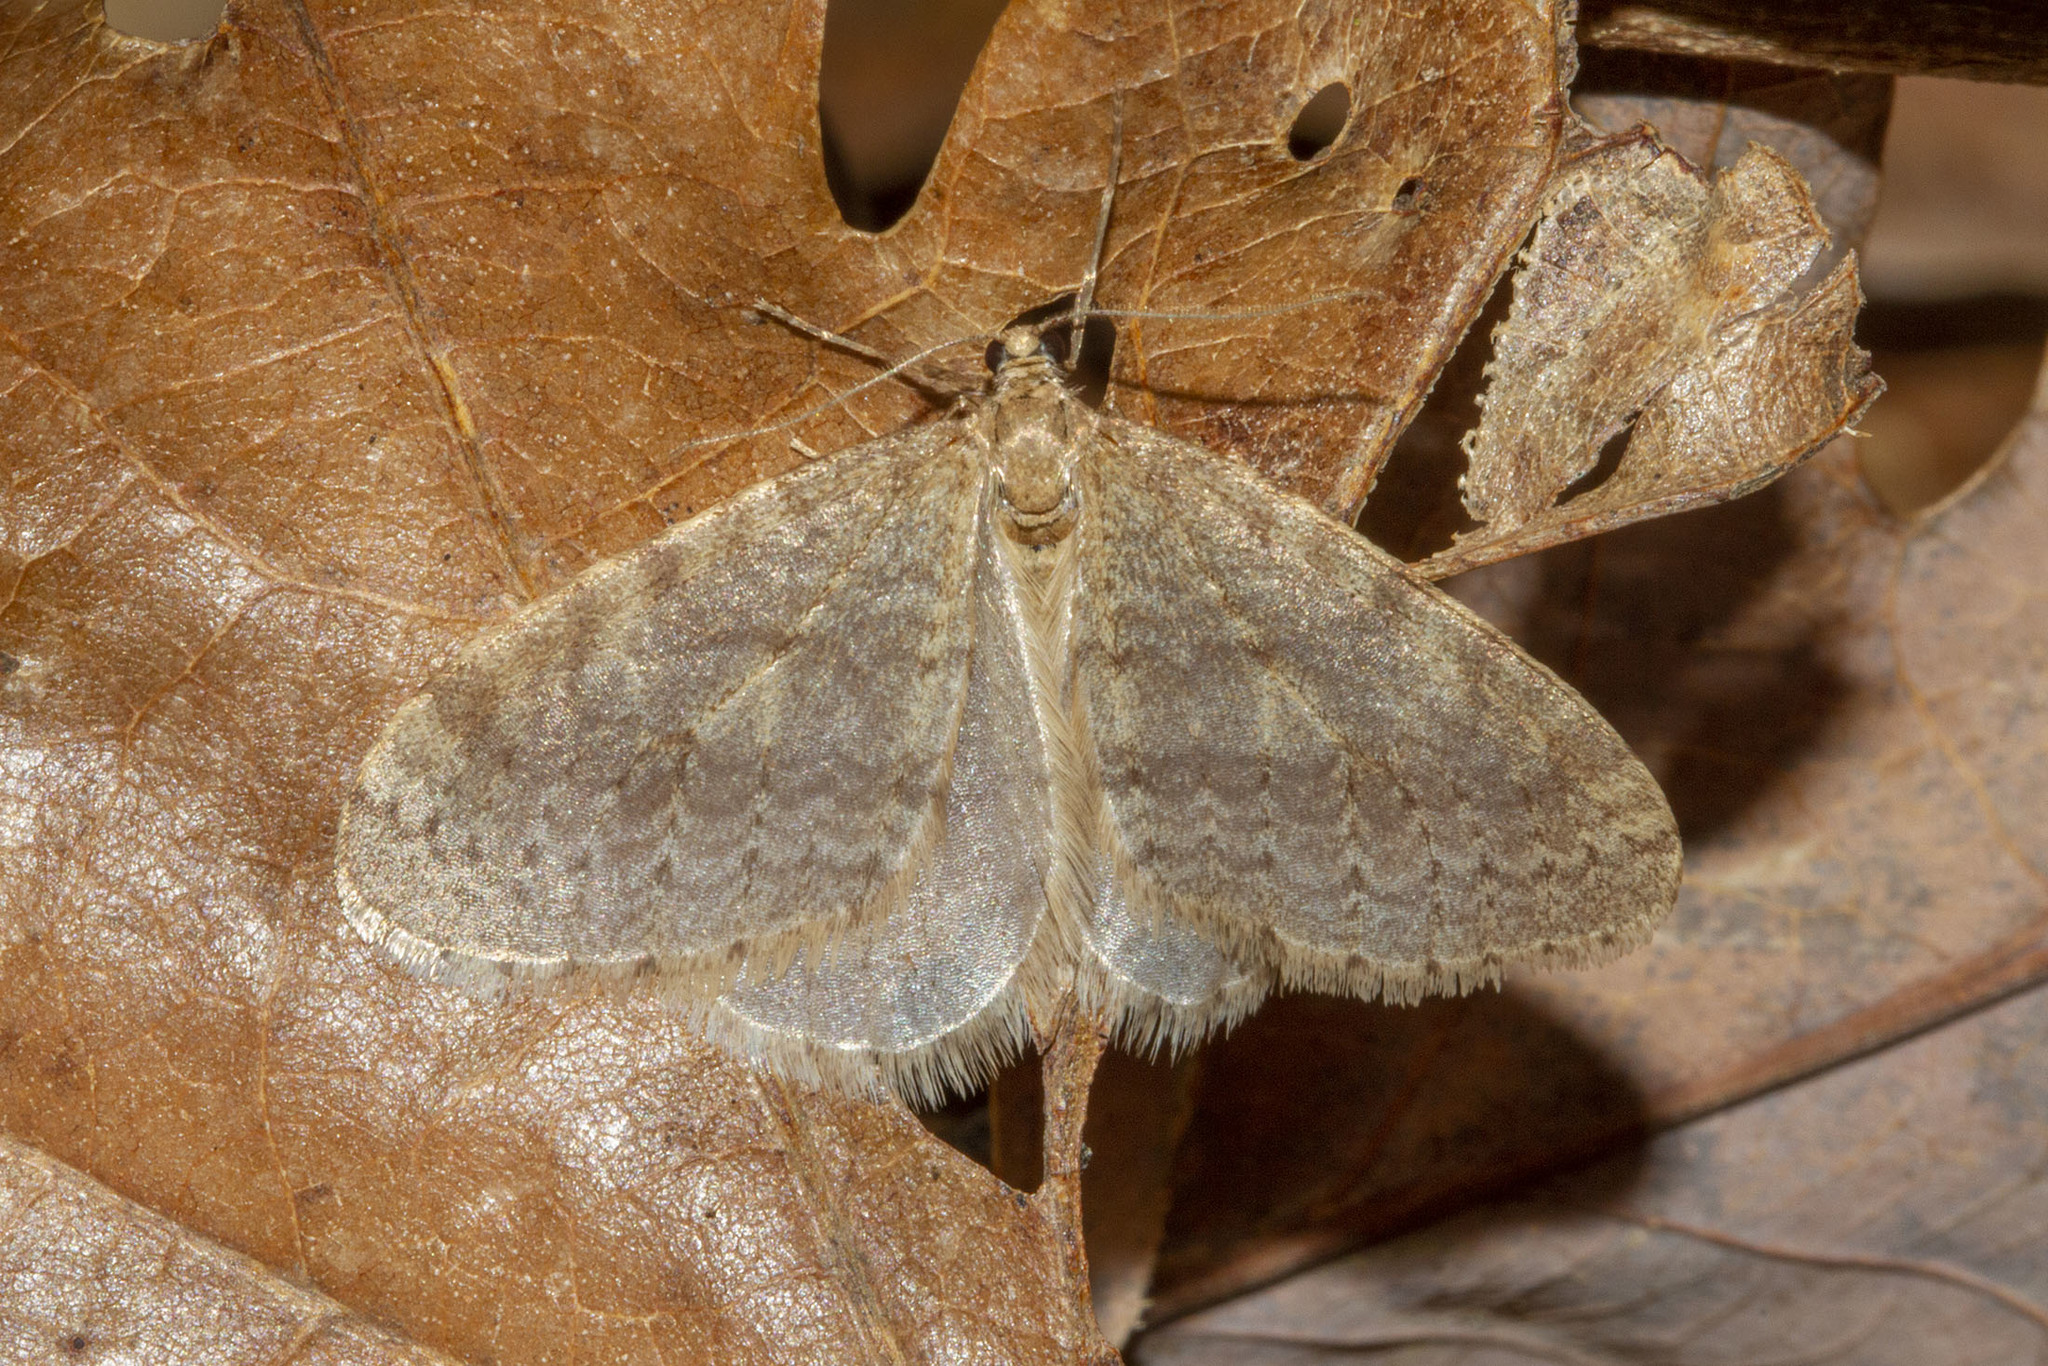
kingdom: Animalia
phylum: Arthropoda
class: Insecta
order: Lepidoptera
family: Geometridae
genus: Operophtera
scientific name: Operophtera bruceata
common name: Bruce spanworm
